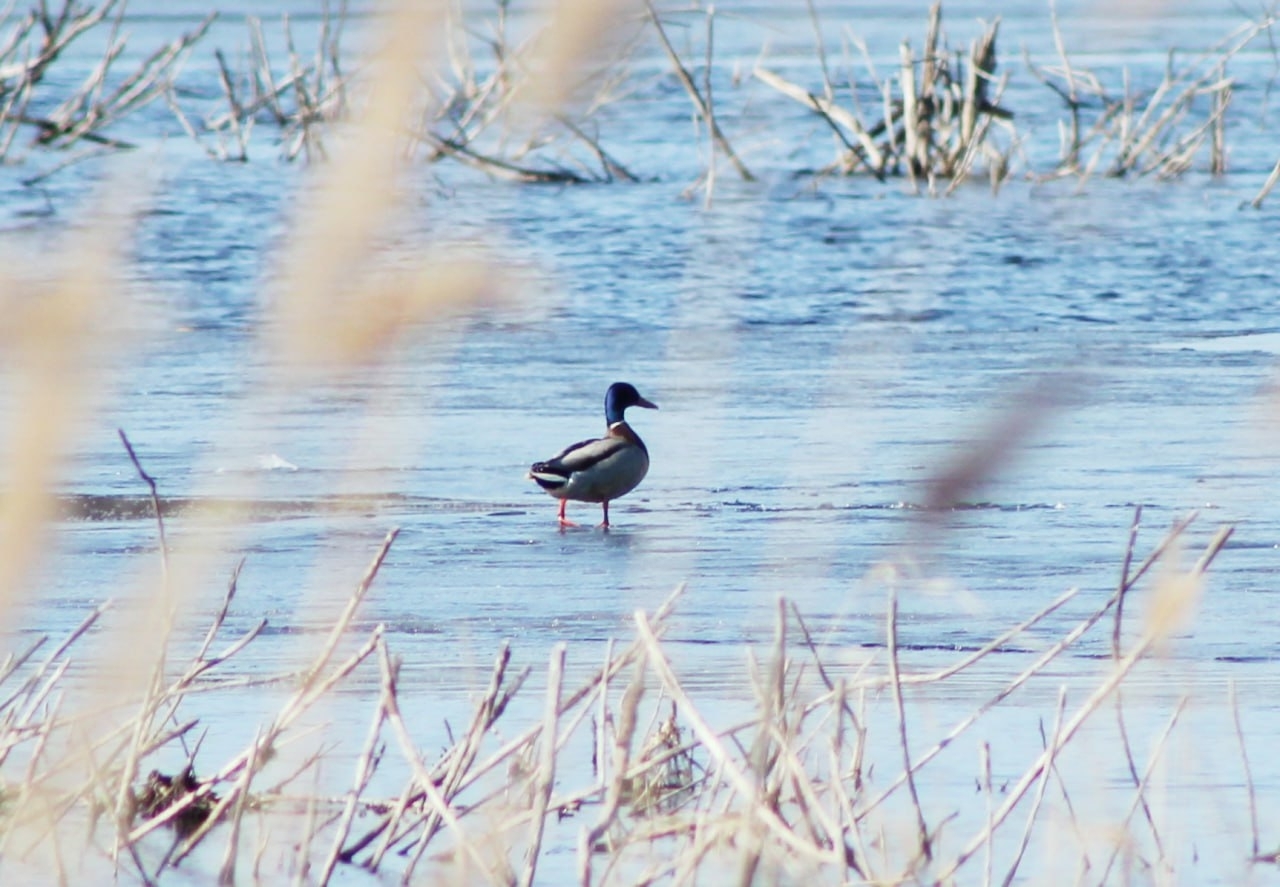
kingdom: Animalia
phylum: Chordata
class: Aves
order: Anseriformes
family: Anatidae
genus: Anas
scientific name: Anas platyrhynchos
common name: Mallard
